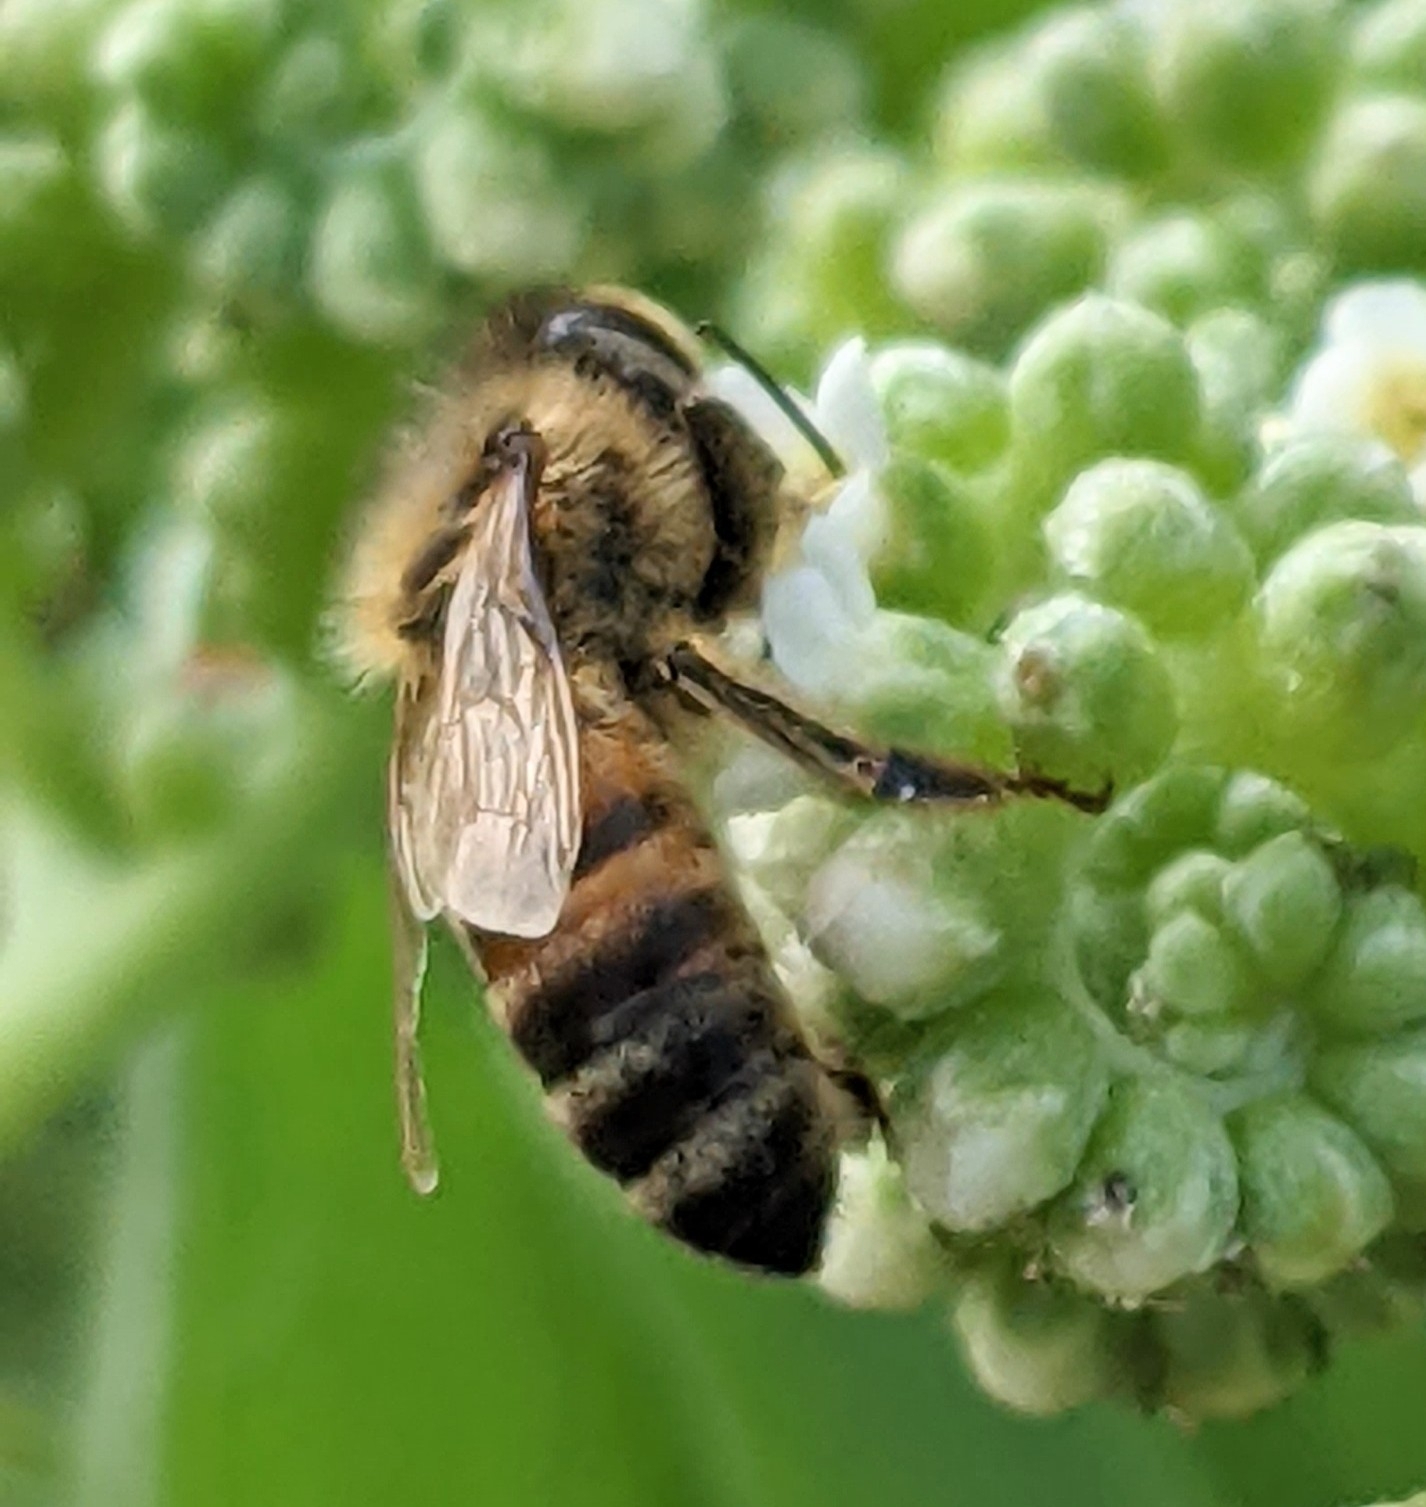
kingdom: Animalia
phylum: Arthropoda
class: Insecta
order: Hymenoptera
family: Apidae
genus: Apis
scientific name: Apis mellifera
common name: Honey bee
